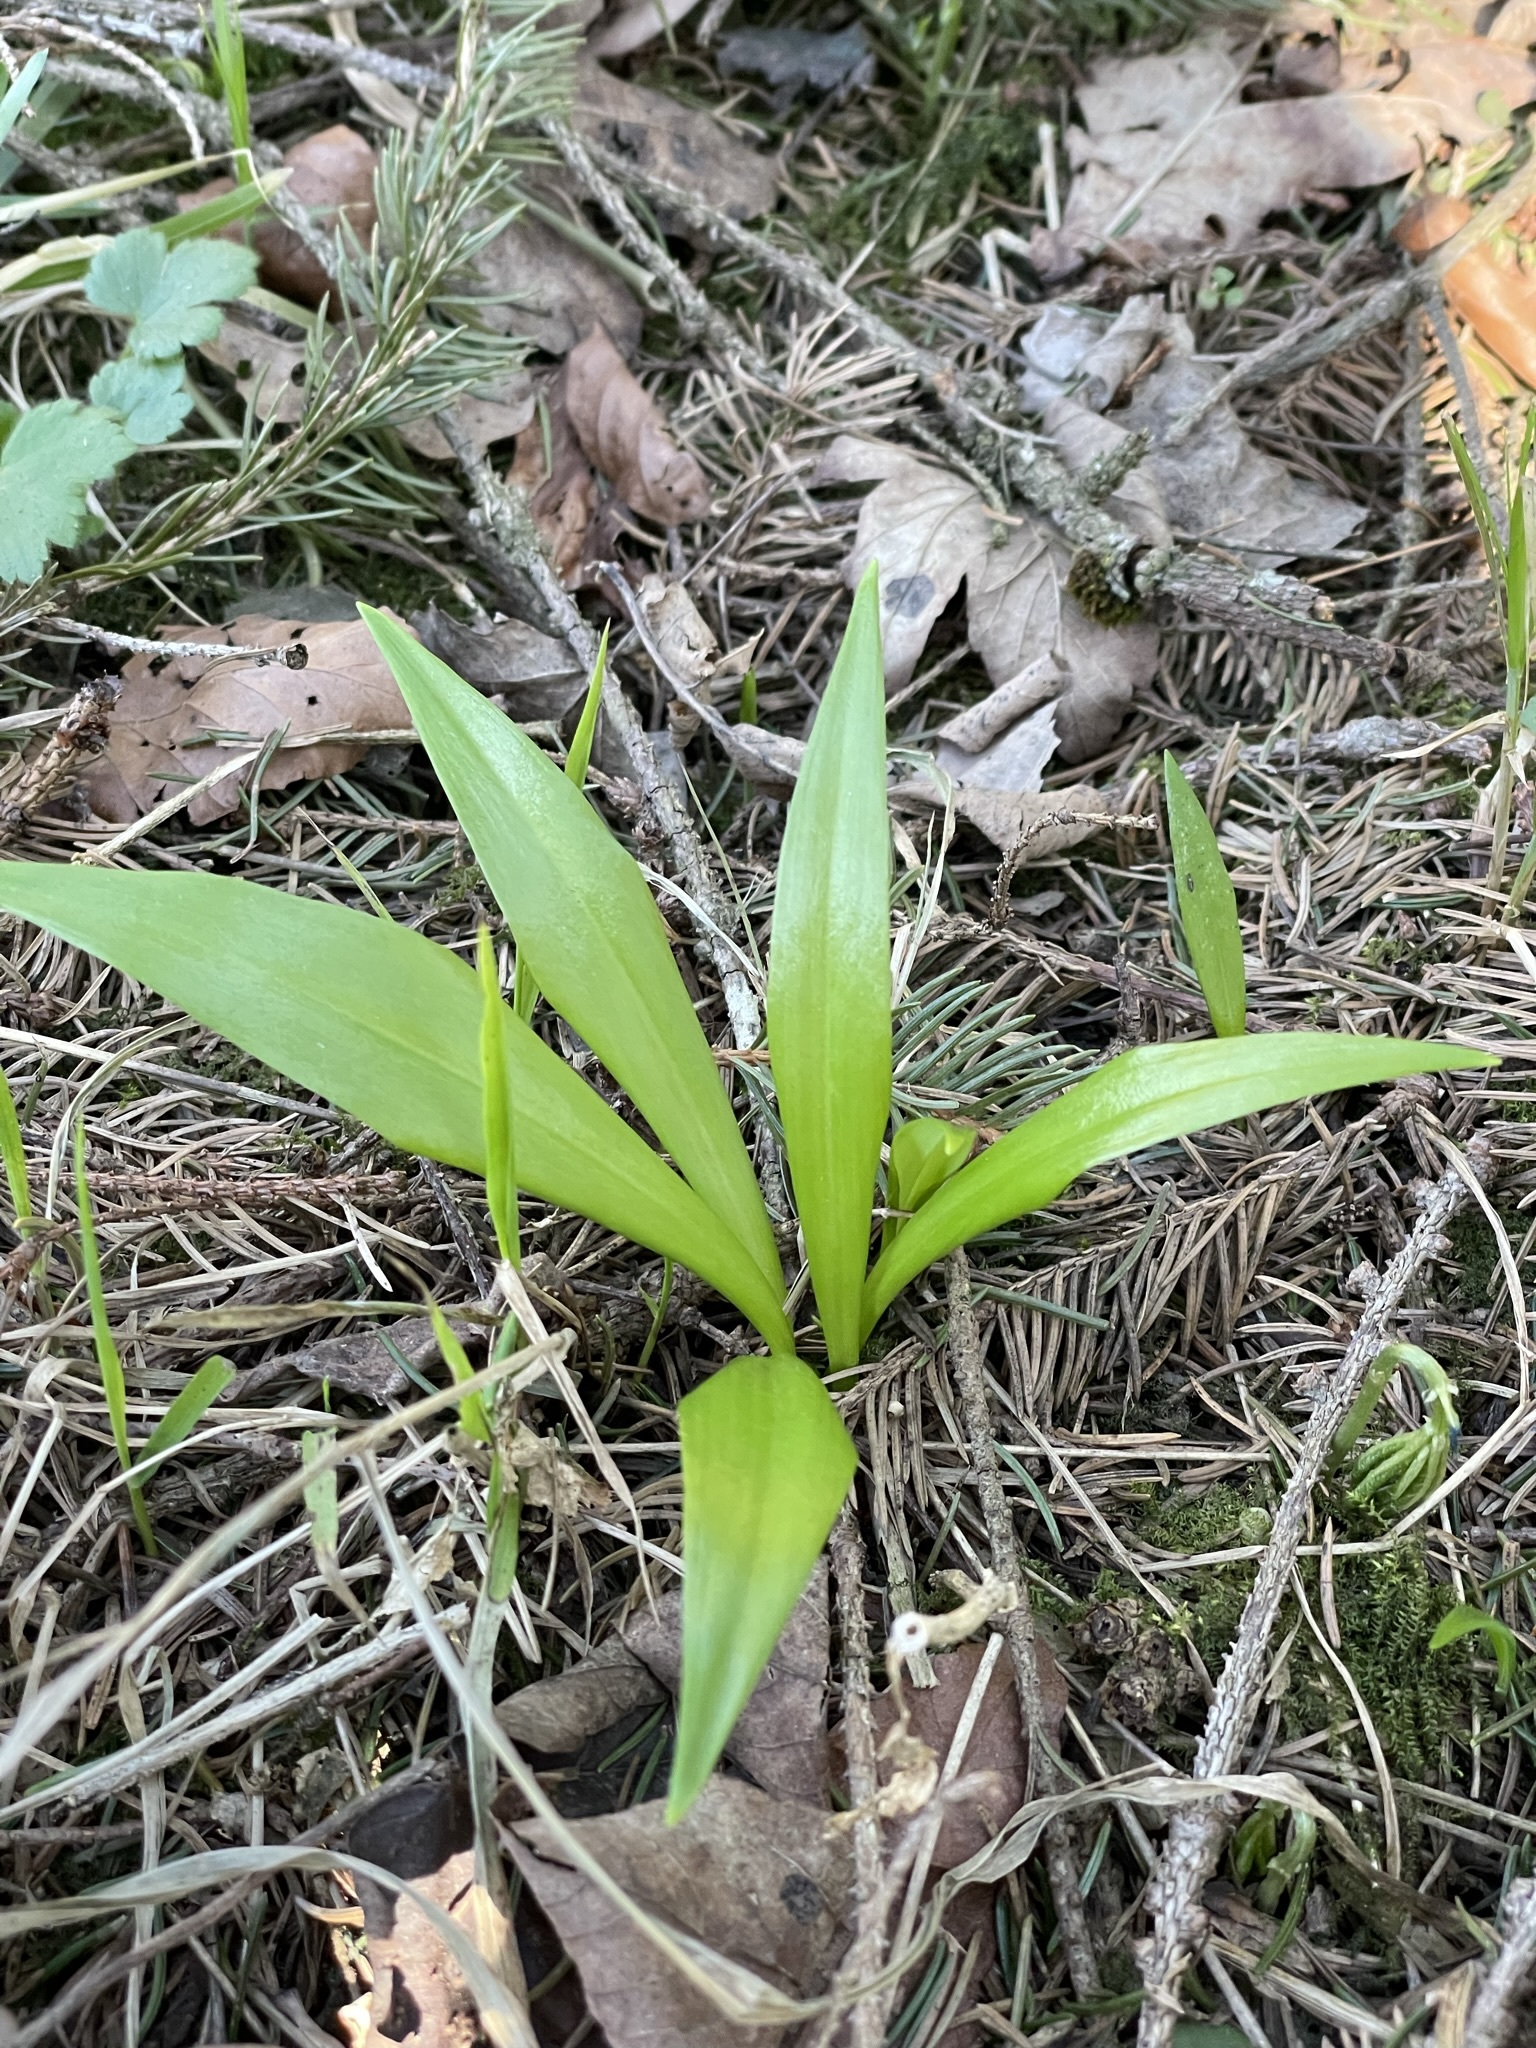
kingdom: Plantae
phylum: Tracheophyta
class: Liliopsida
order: Asparagales
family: Amaryllidaceae
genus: Allium
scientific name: Allium ursinum
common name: Ramsons
